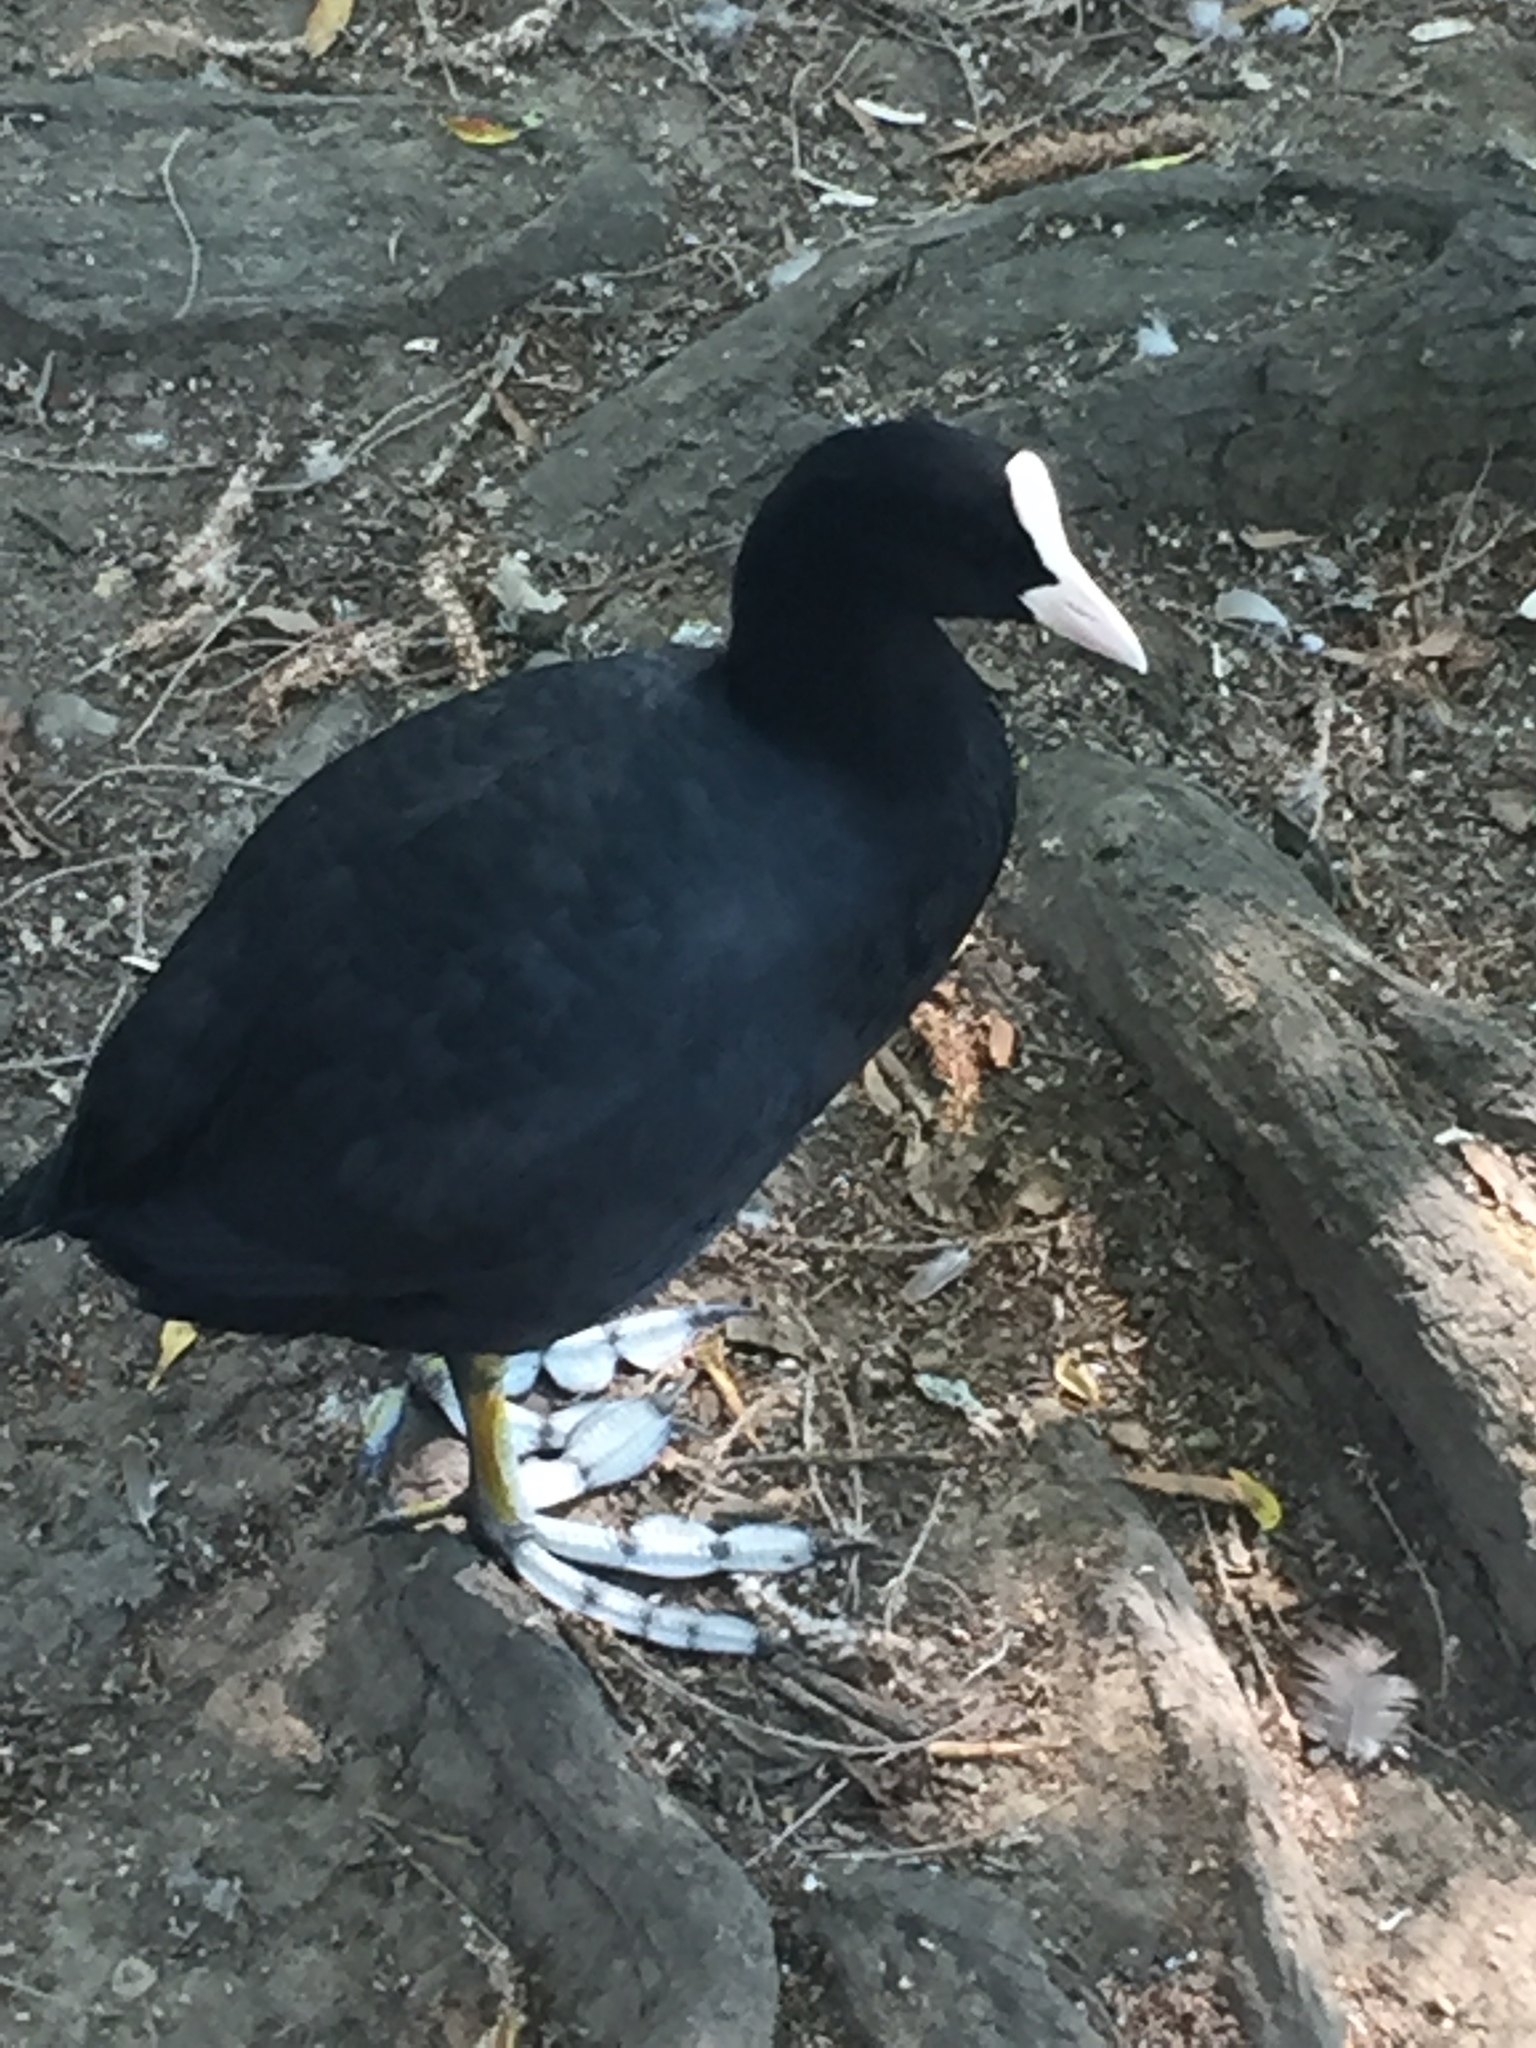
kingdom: Animalia
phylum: Chordata
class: Aves
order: Gruiformes
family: Rallidae
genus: Fulica
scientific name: Fulica atra
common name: Eurasian coot
